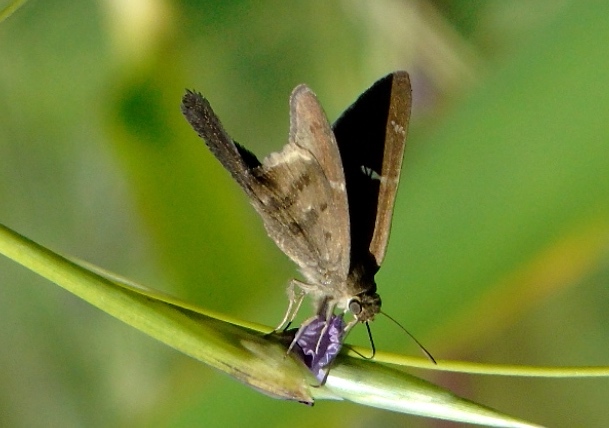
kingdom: Animalia
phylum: Arthropoda
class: Insecta
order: Lepidoptera
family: Hesperiidae
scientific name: Hesperiidae
